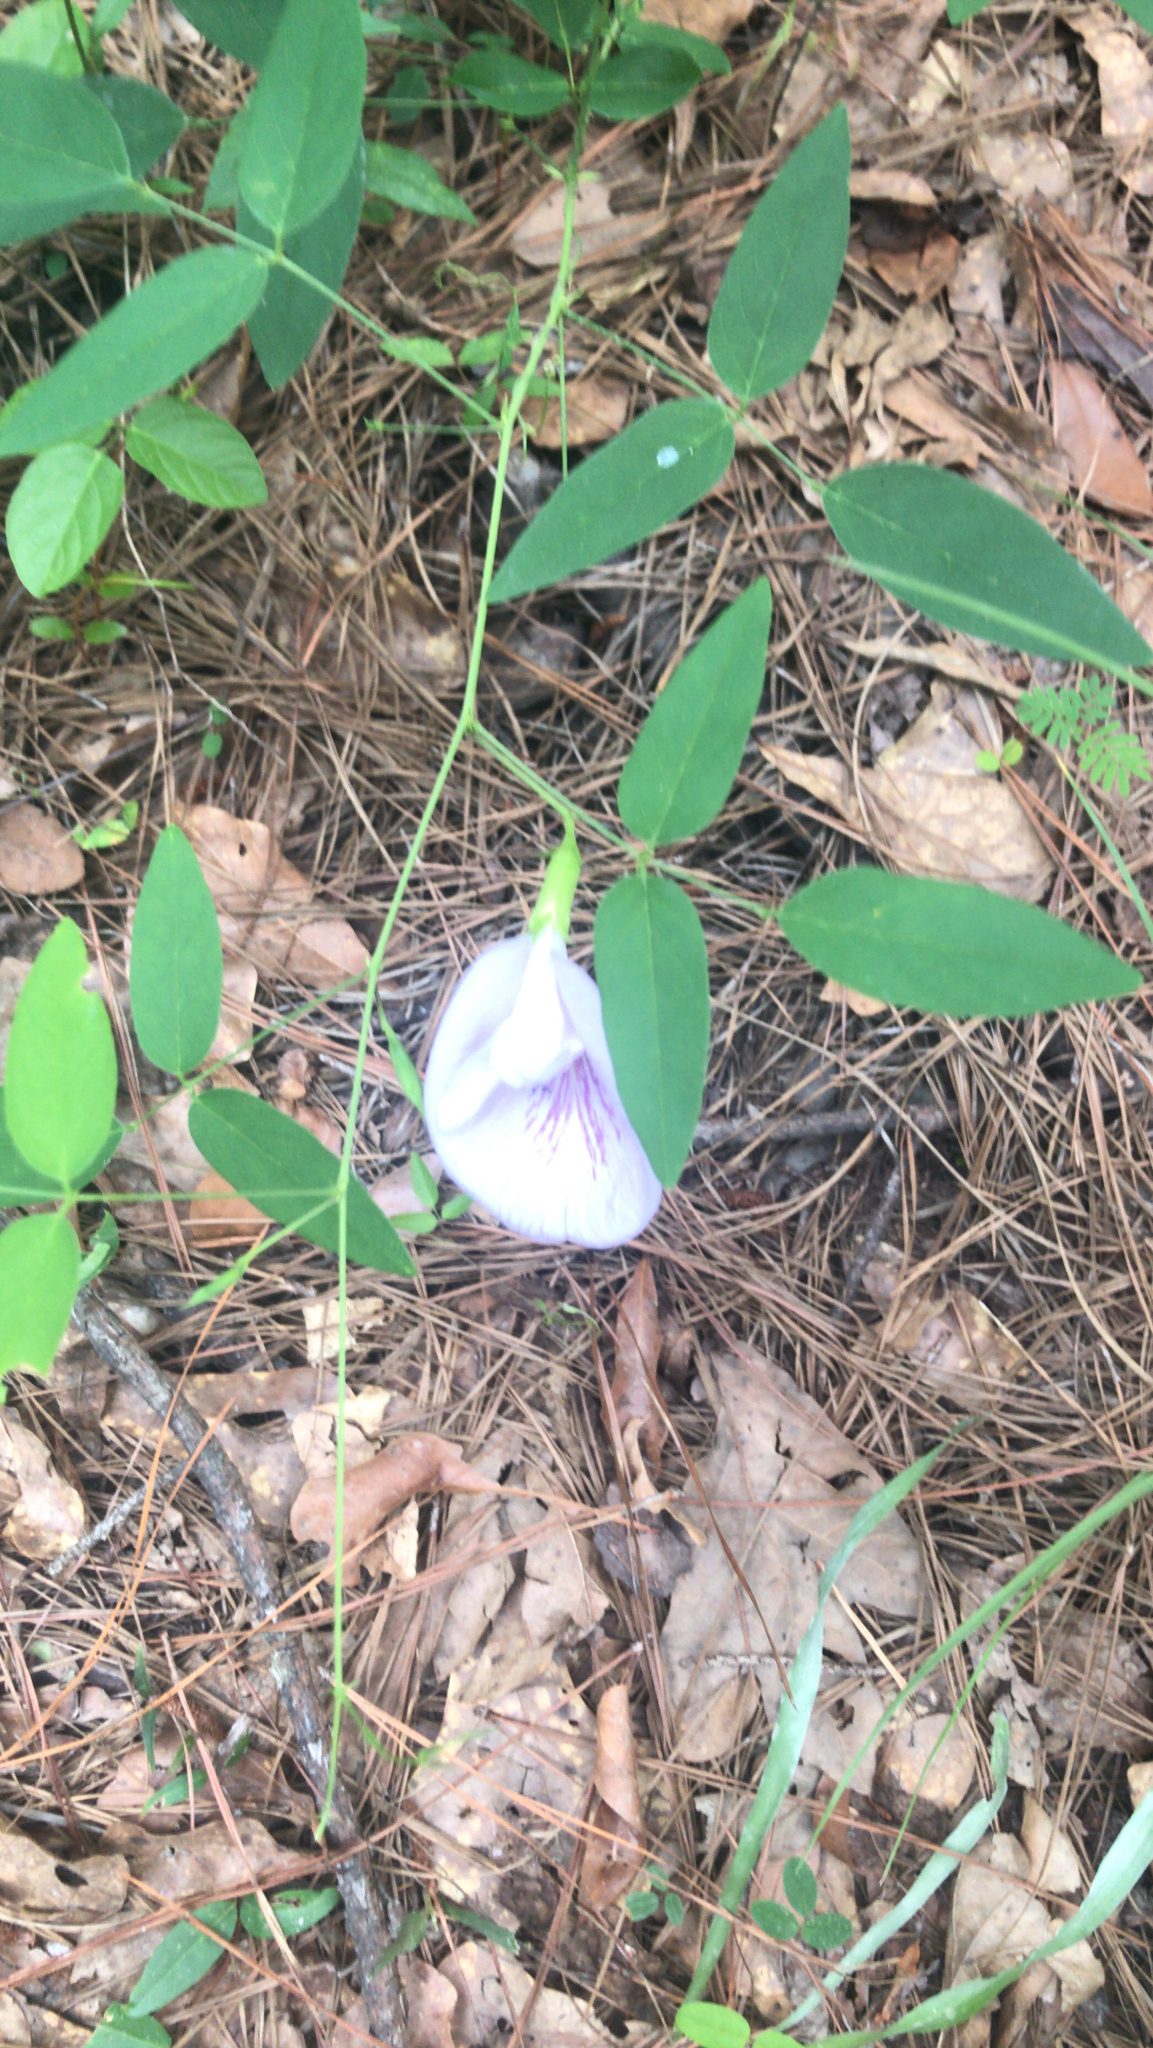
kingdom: Plantae
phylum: Tracheophyta
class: Magnoliopsida
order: Fabales
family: Fabaceae
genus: Clitoria
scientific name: Clitoria mariana
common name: Butterfly-pea
